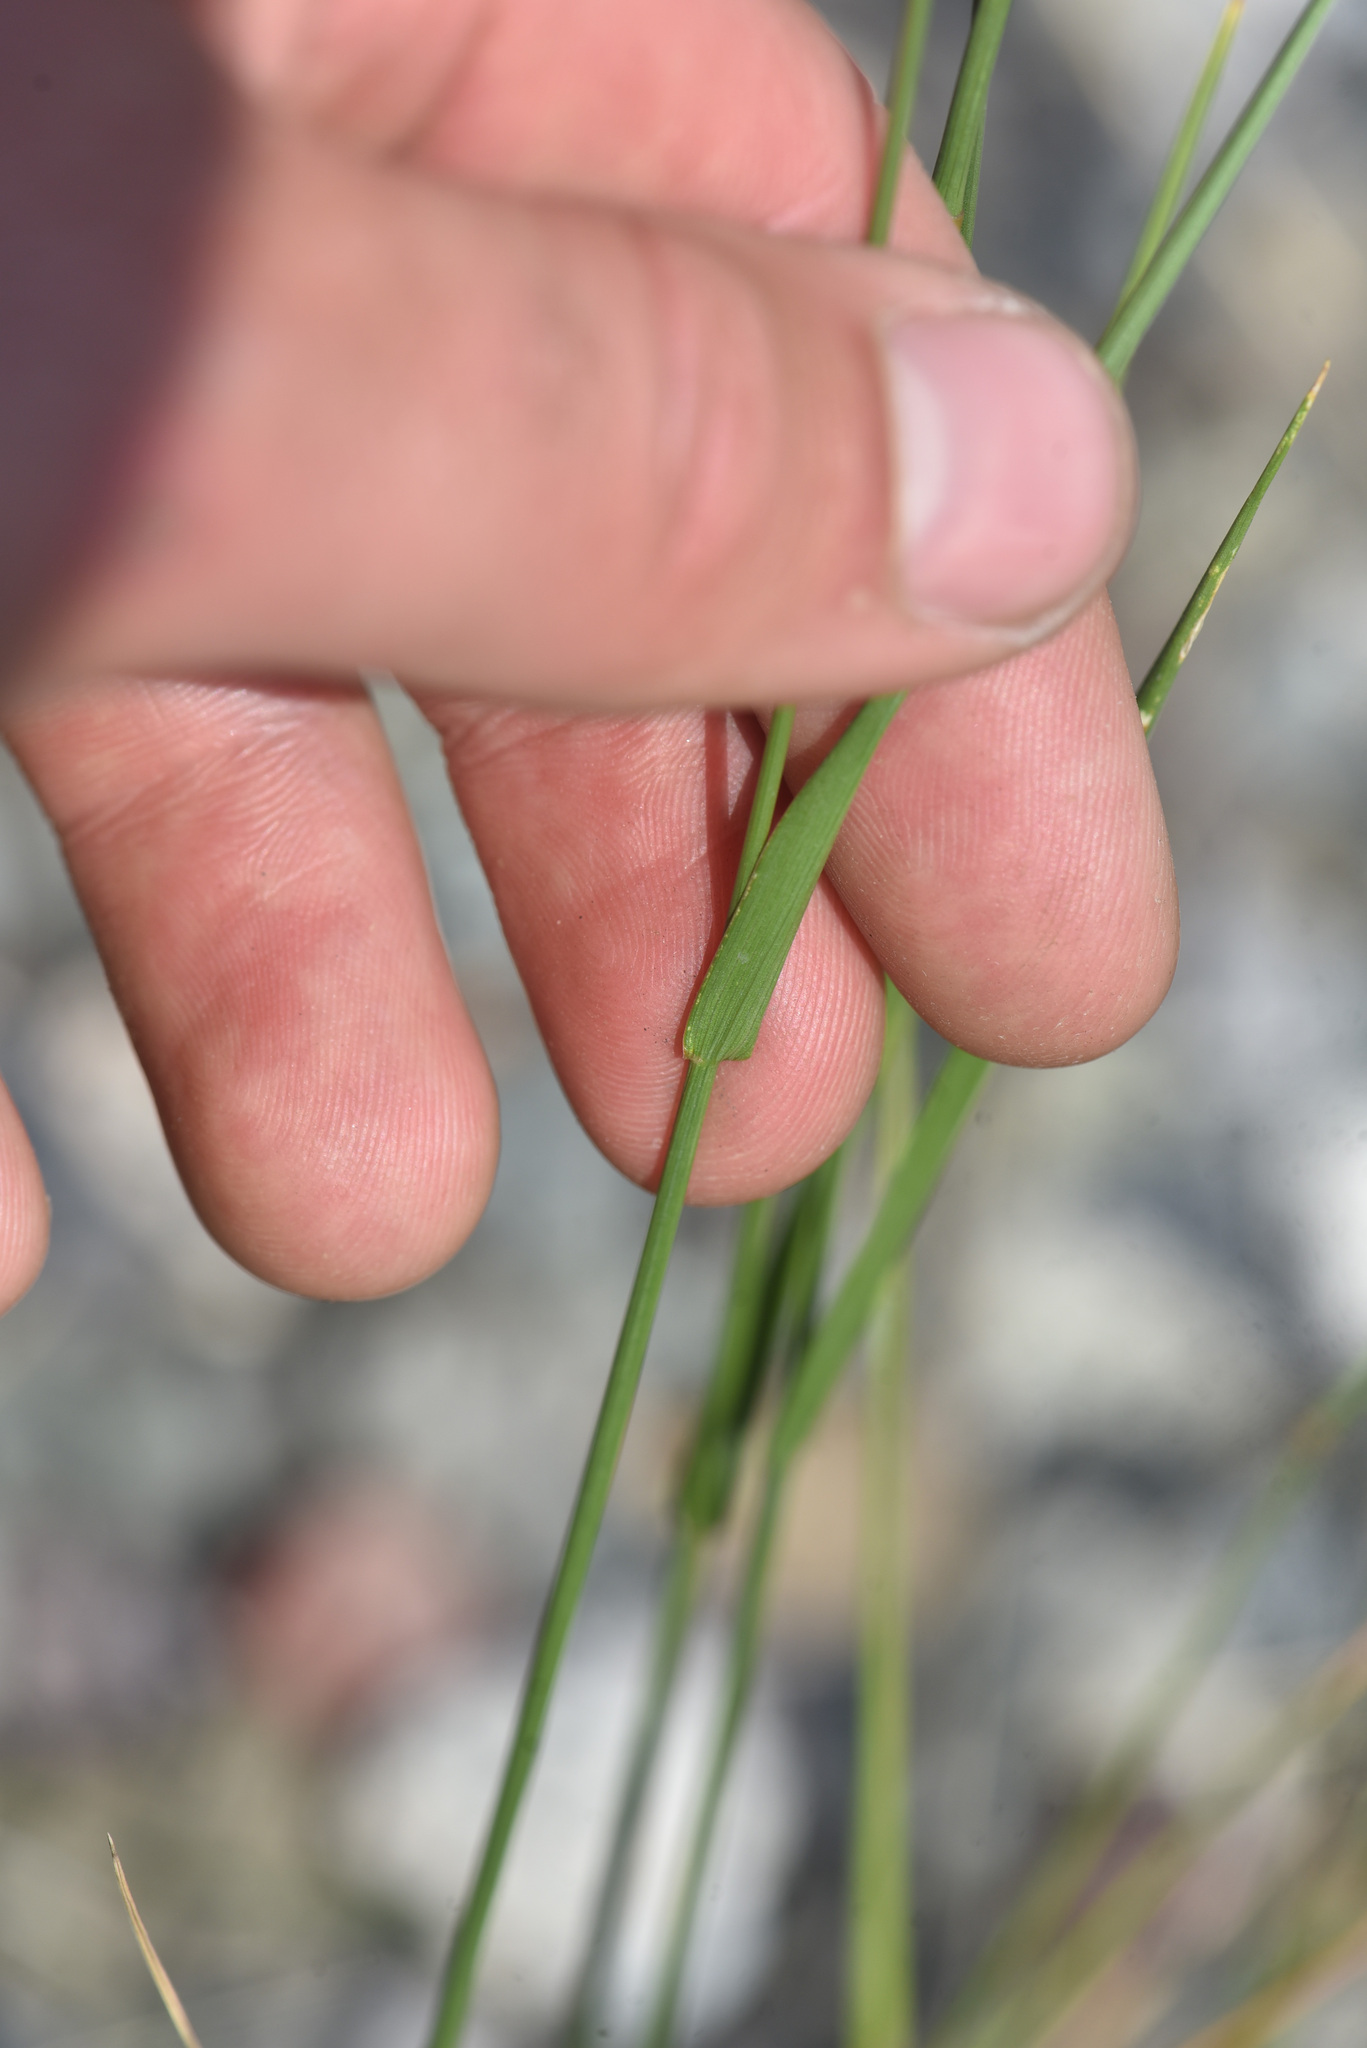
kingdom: Plantae
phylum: Tracheophyta
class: Liliopsida
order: Poales
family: Poaceae
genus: Agropyron
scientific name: Agropyron cristatum
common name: Crested wheatgrass
